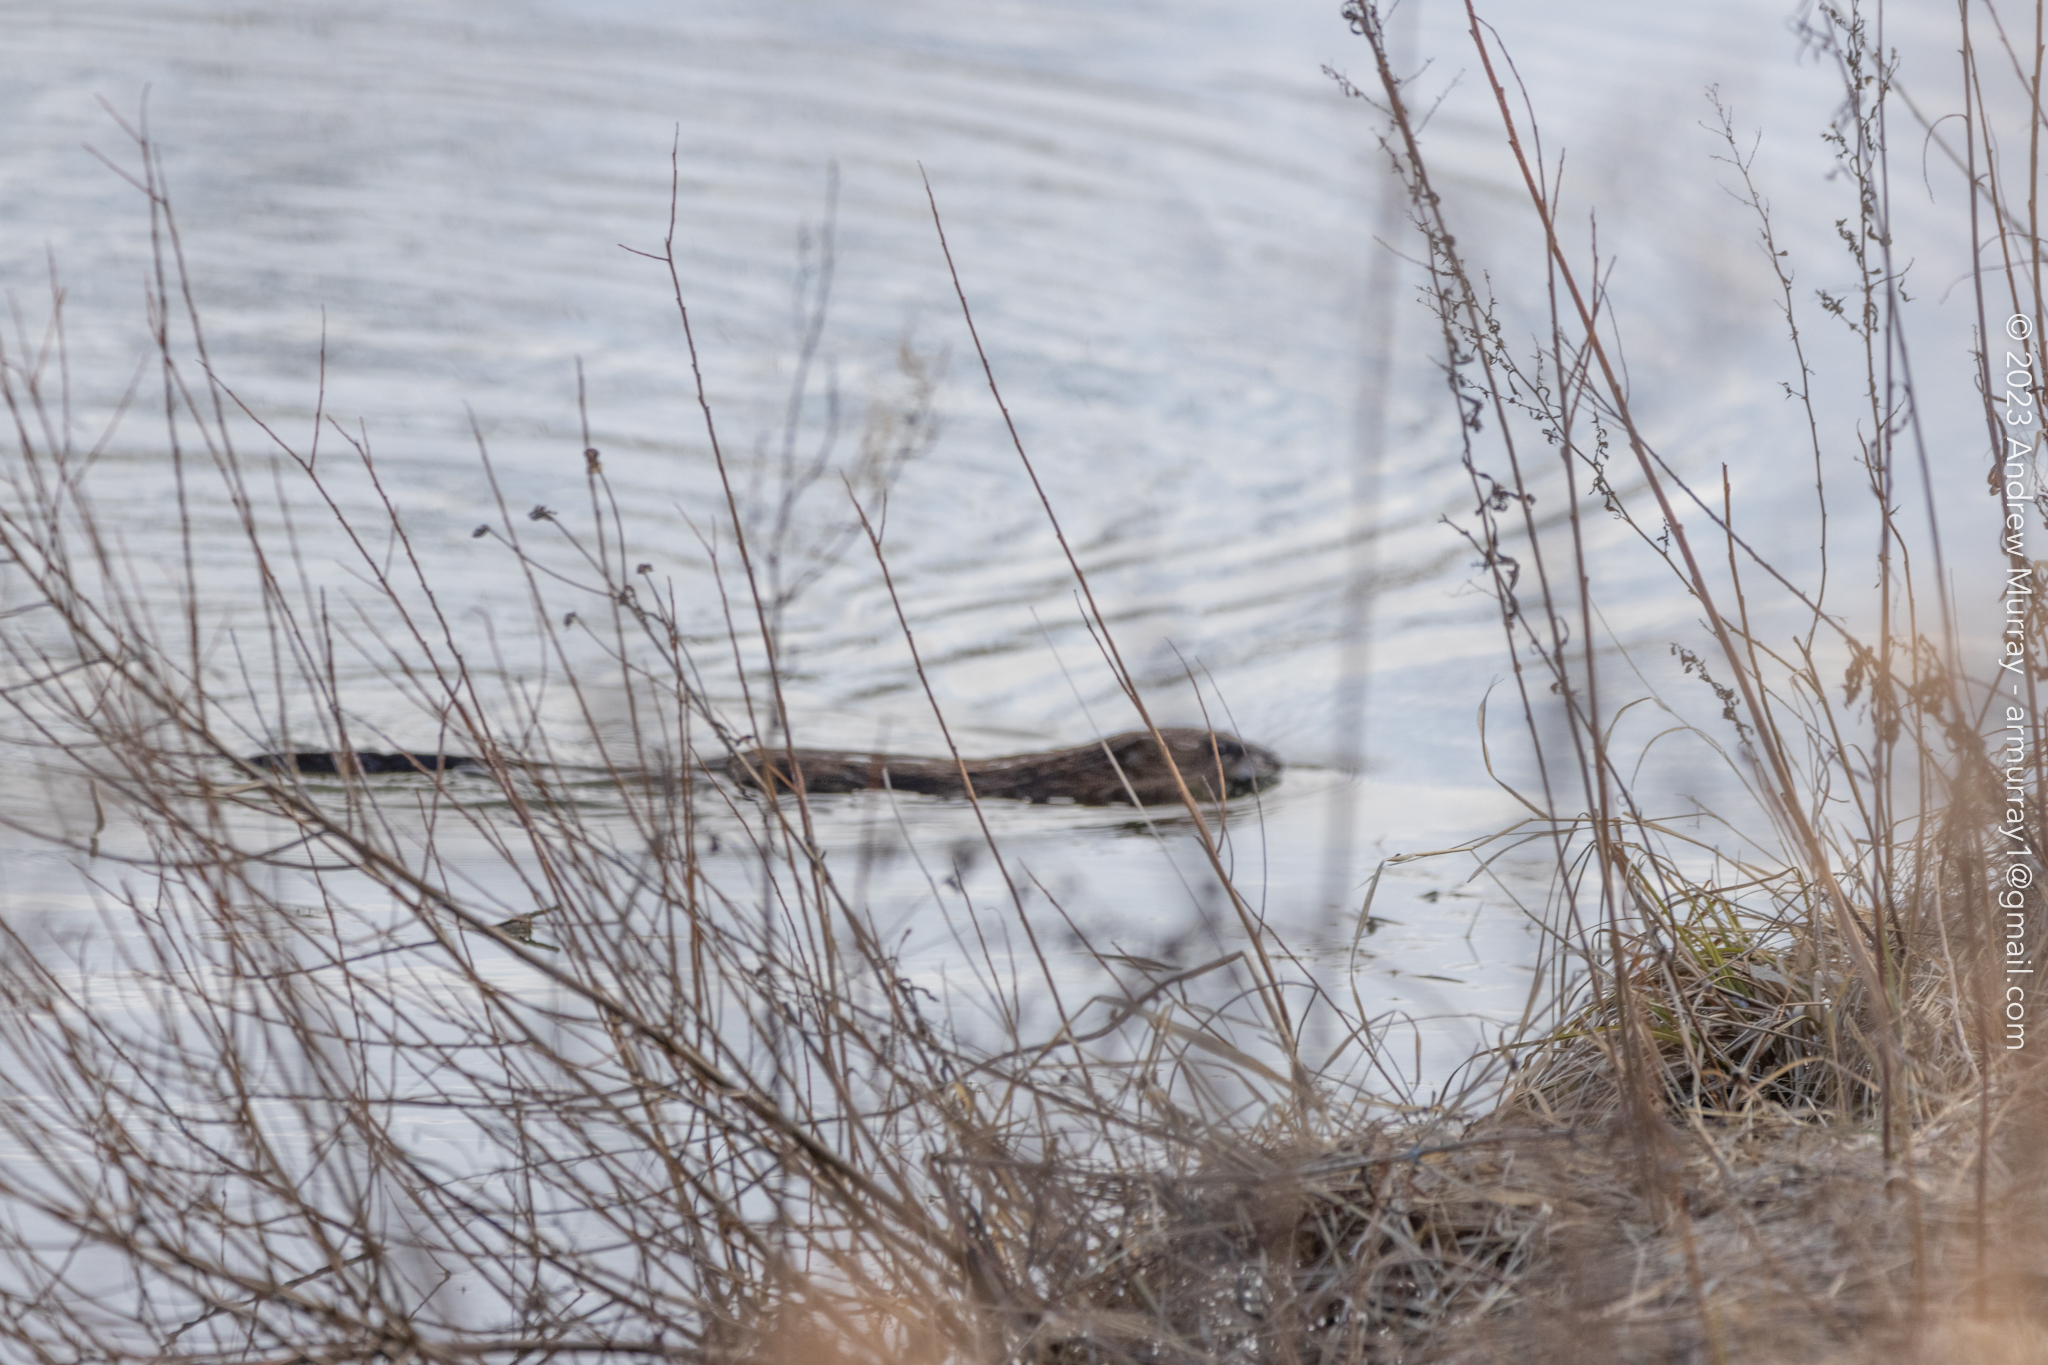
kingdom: Animalia
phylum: Chordata
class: Mammalia
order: Rodentia
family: Cricetidae
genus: Ondatra
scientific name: Ondatra zibethicus
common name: Muskrat
